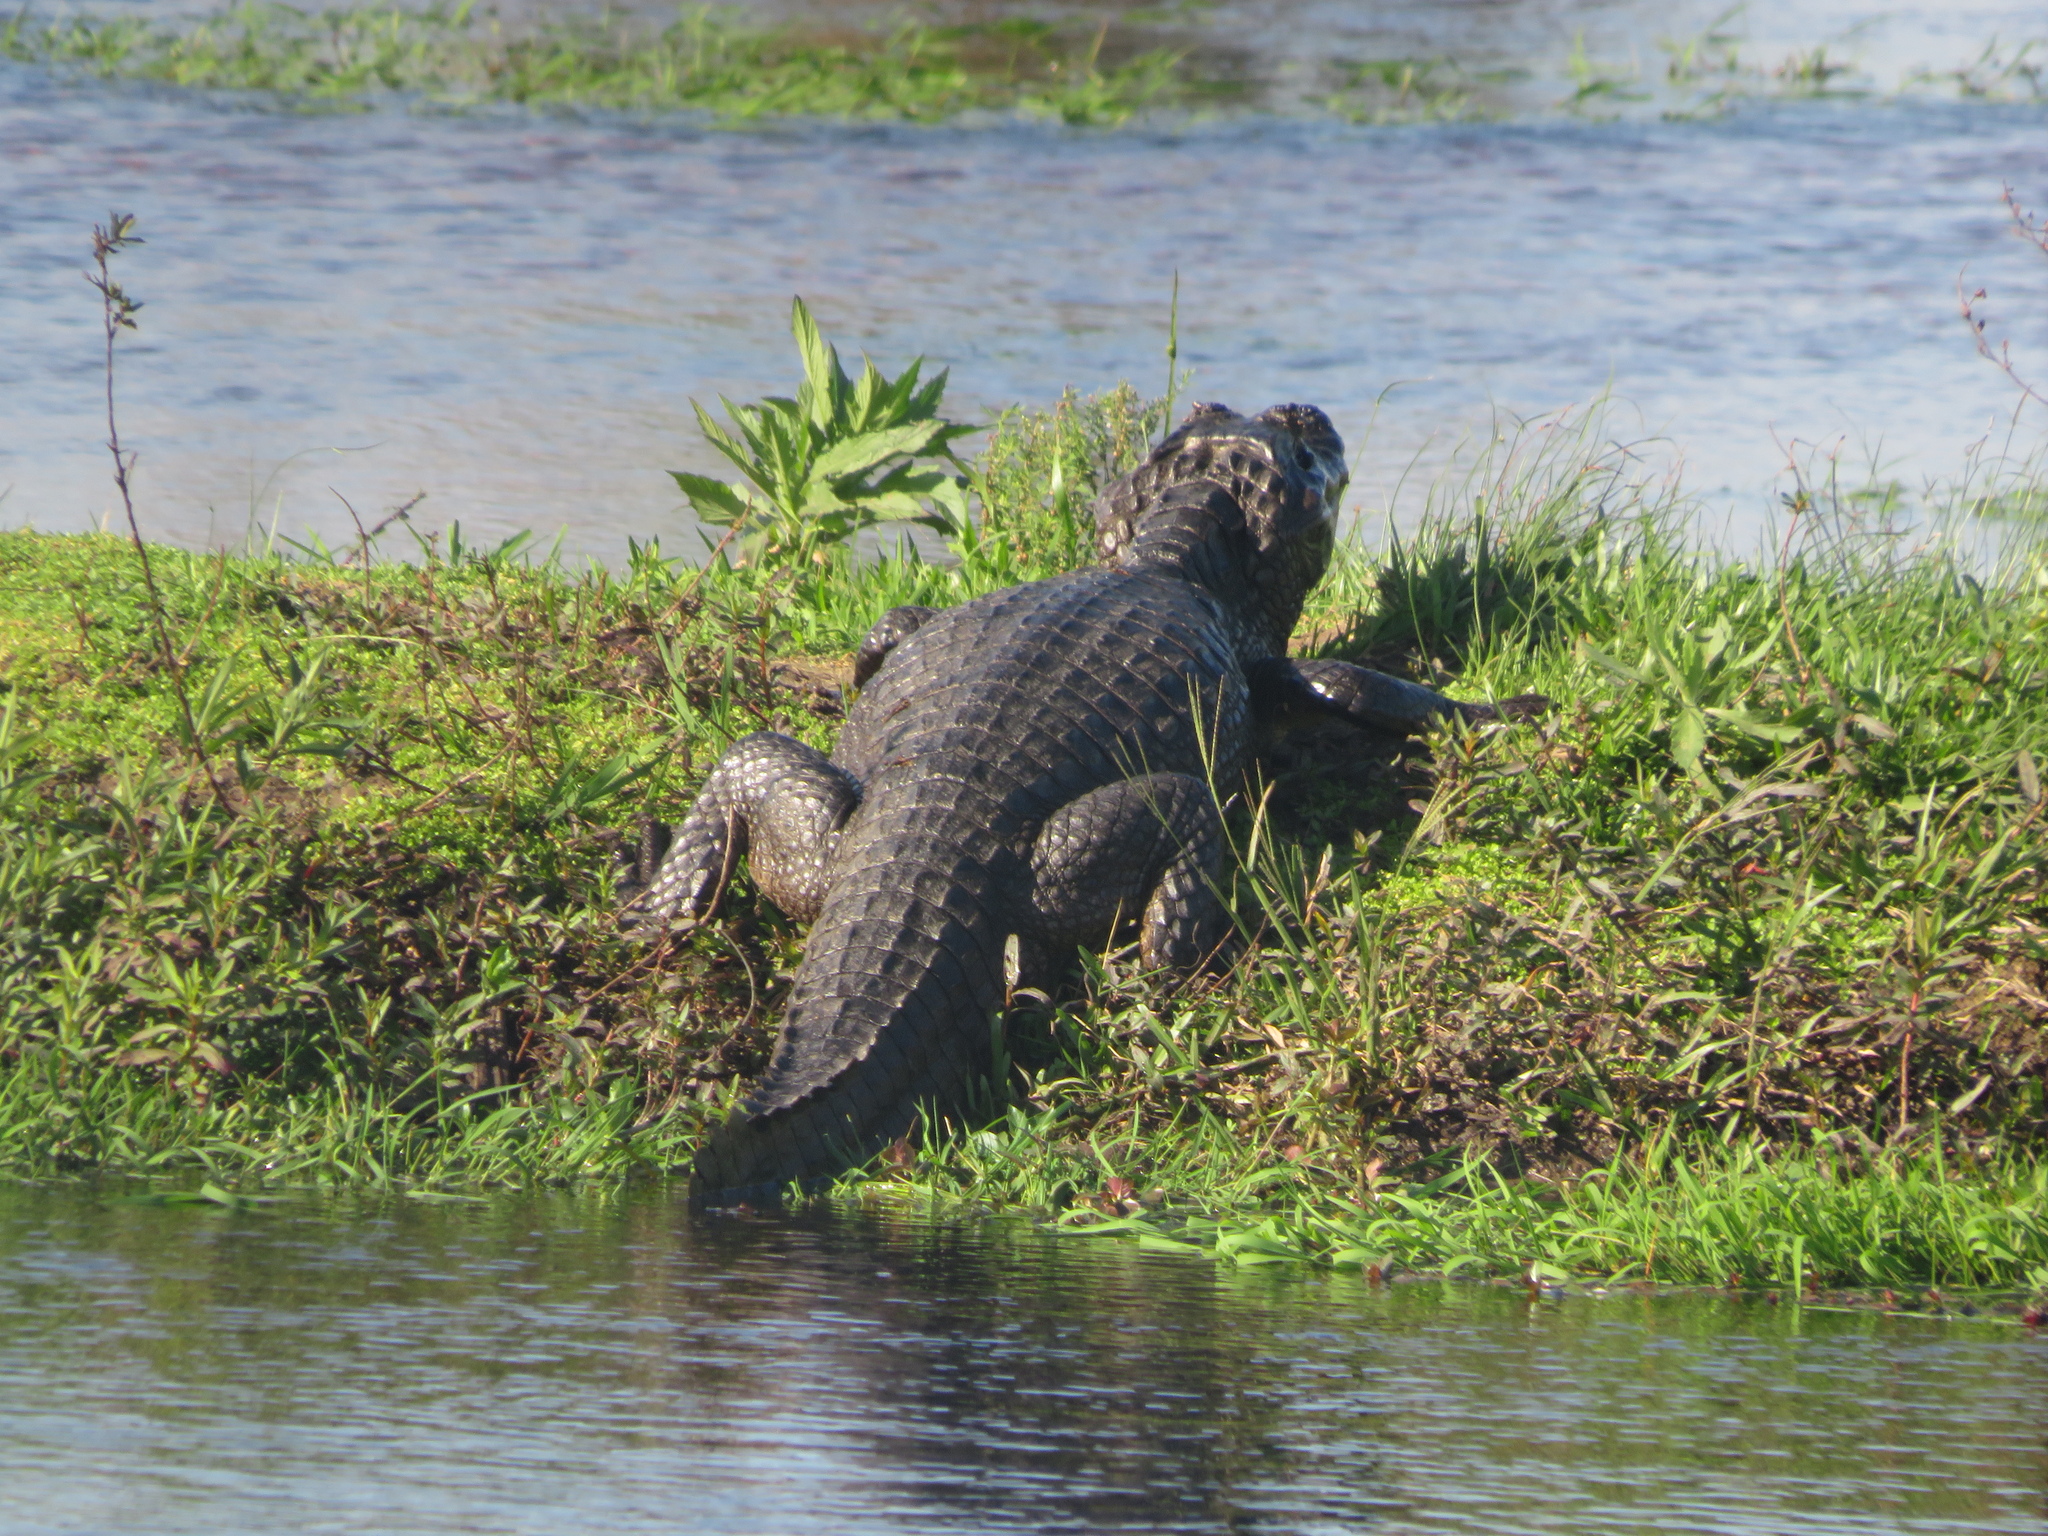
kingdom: Animalia
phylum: Chordata
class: Crocodylia
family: Alligatoridae
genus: Caiman
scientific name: Caiman yacare
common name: Yacare caiman
